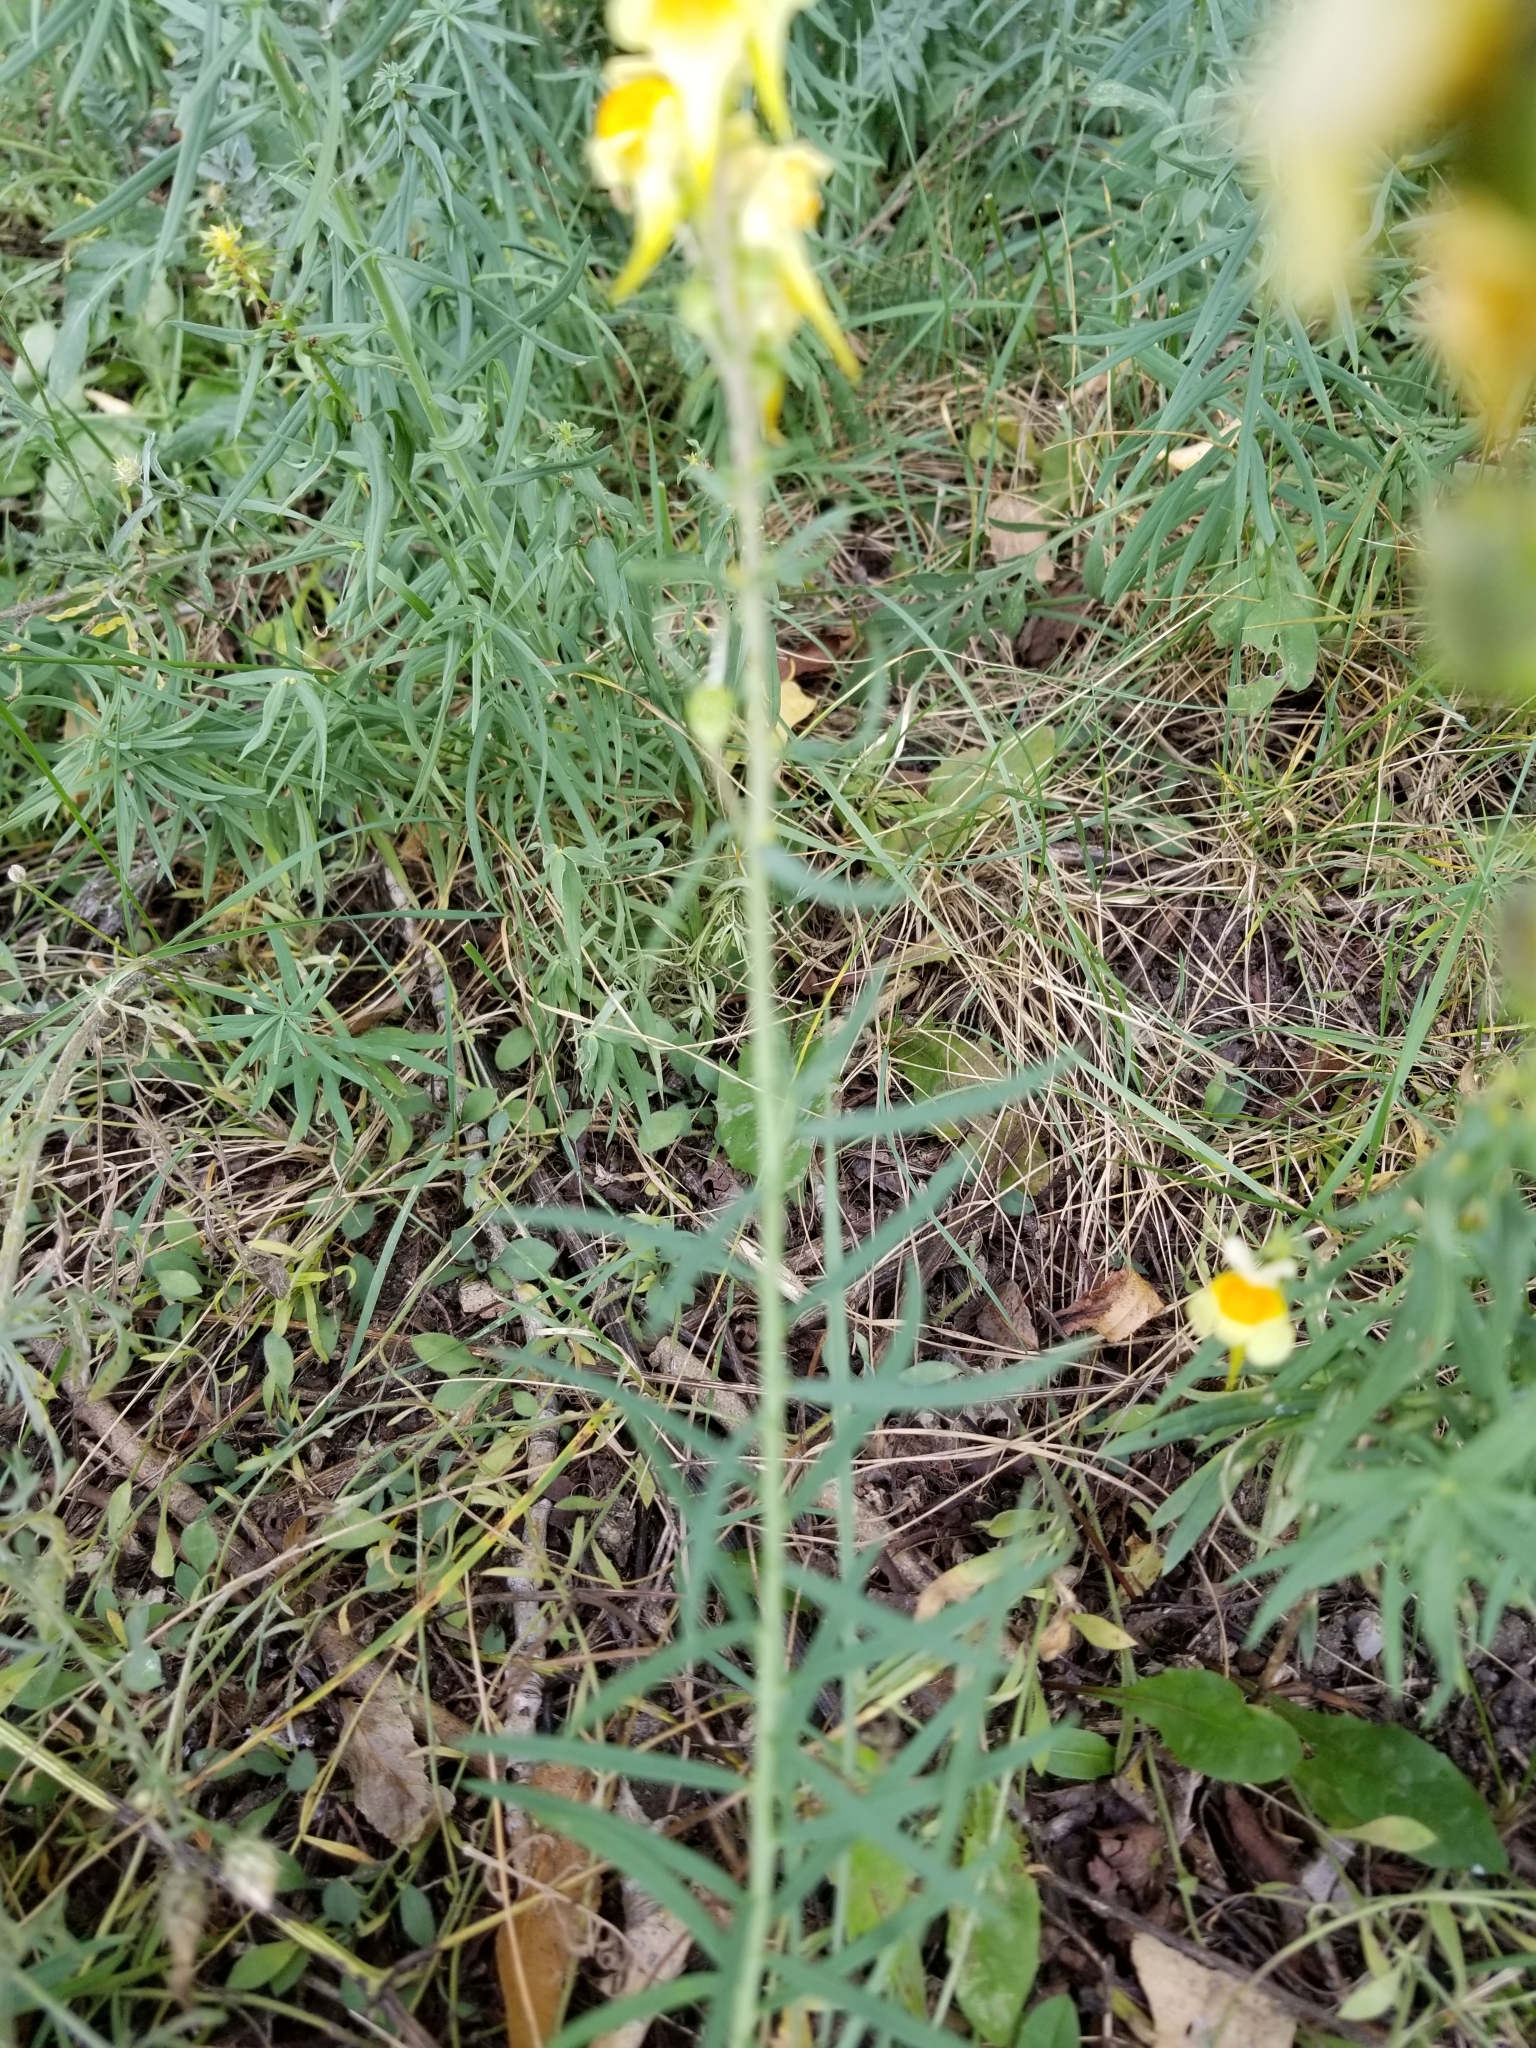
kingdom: Plantae
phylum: Tracheophyta
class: Magnoliopsida
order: Lamiales
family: Plantaginaceae
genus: Linaria
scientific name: Linaria vulgaris
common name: Butter and eggs
